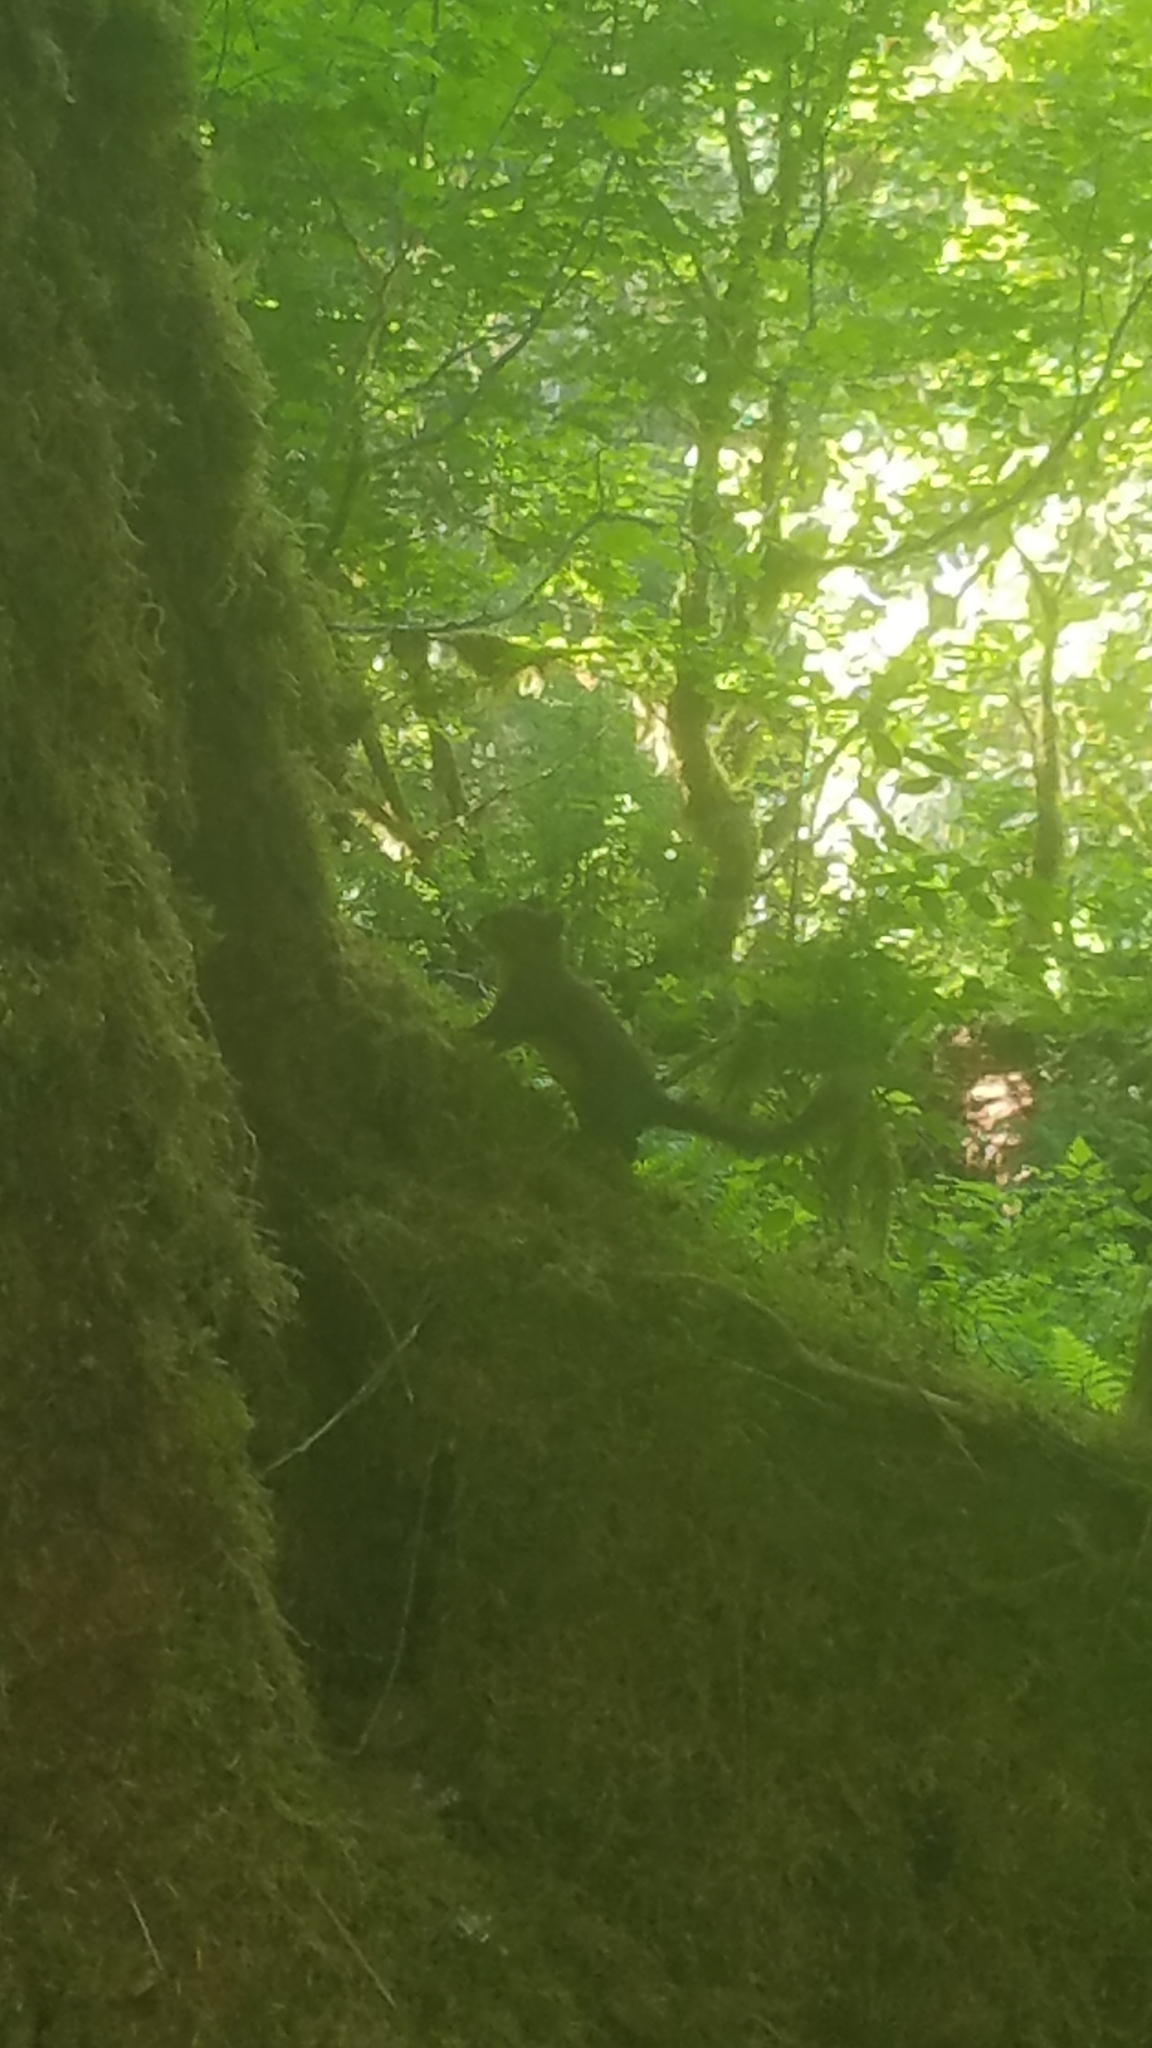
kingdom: Animalia
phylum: Chordata
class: Mammalia
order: Rodentia
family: Sciuridae
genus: Tamiasciurus
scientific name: Tamiasciurus douglasii
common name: Douglas's squirrel
